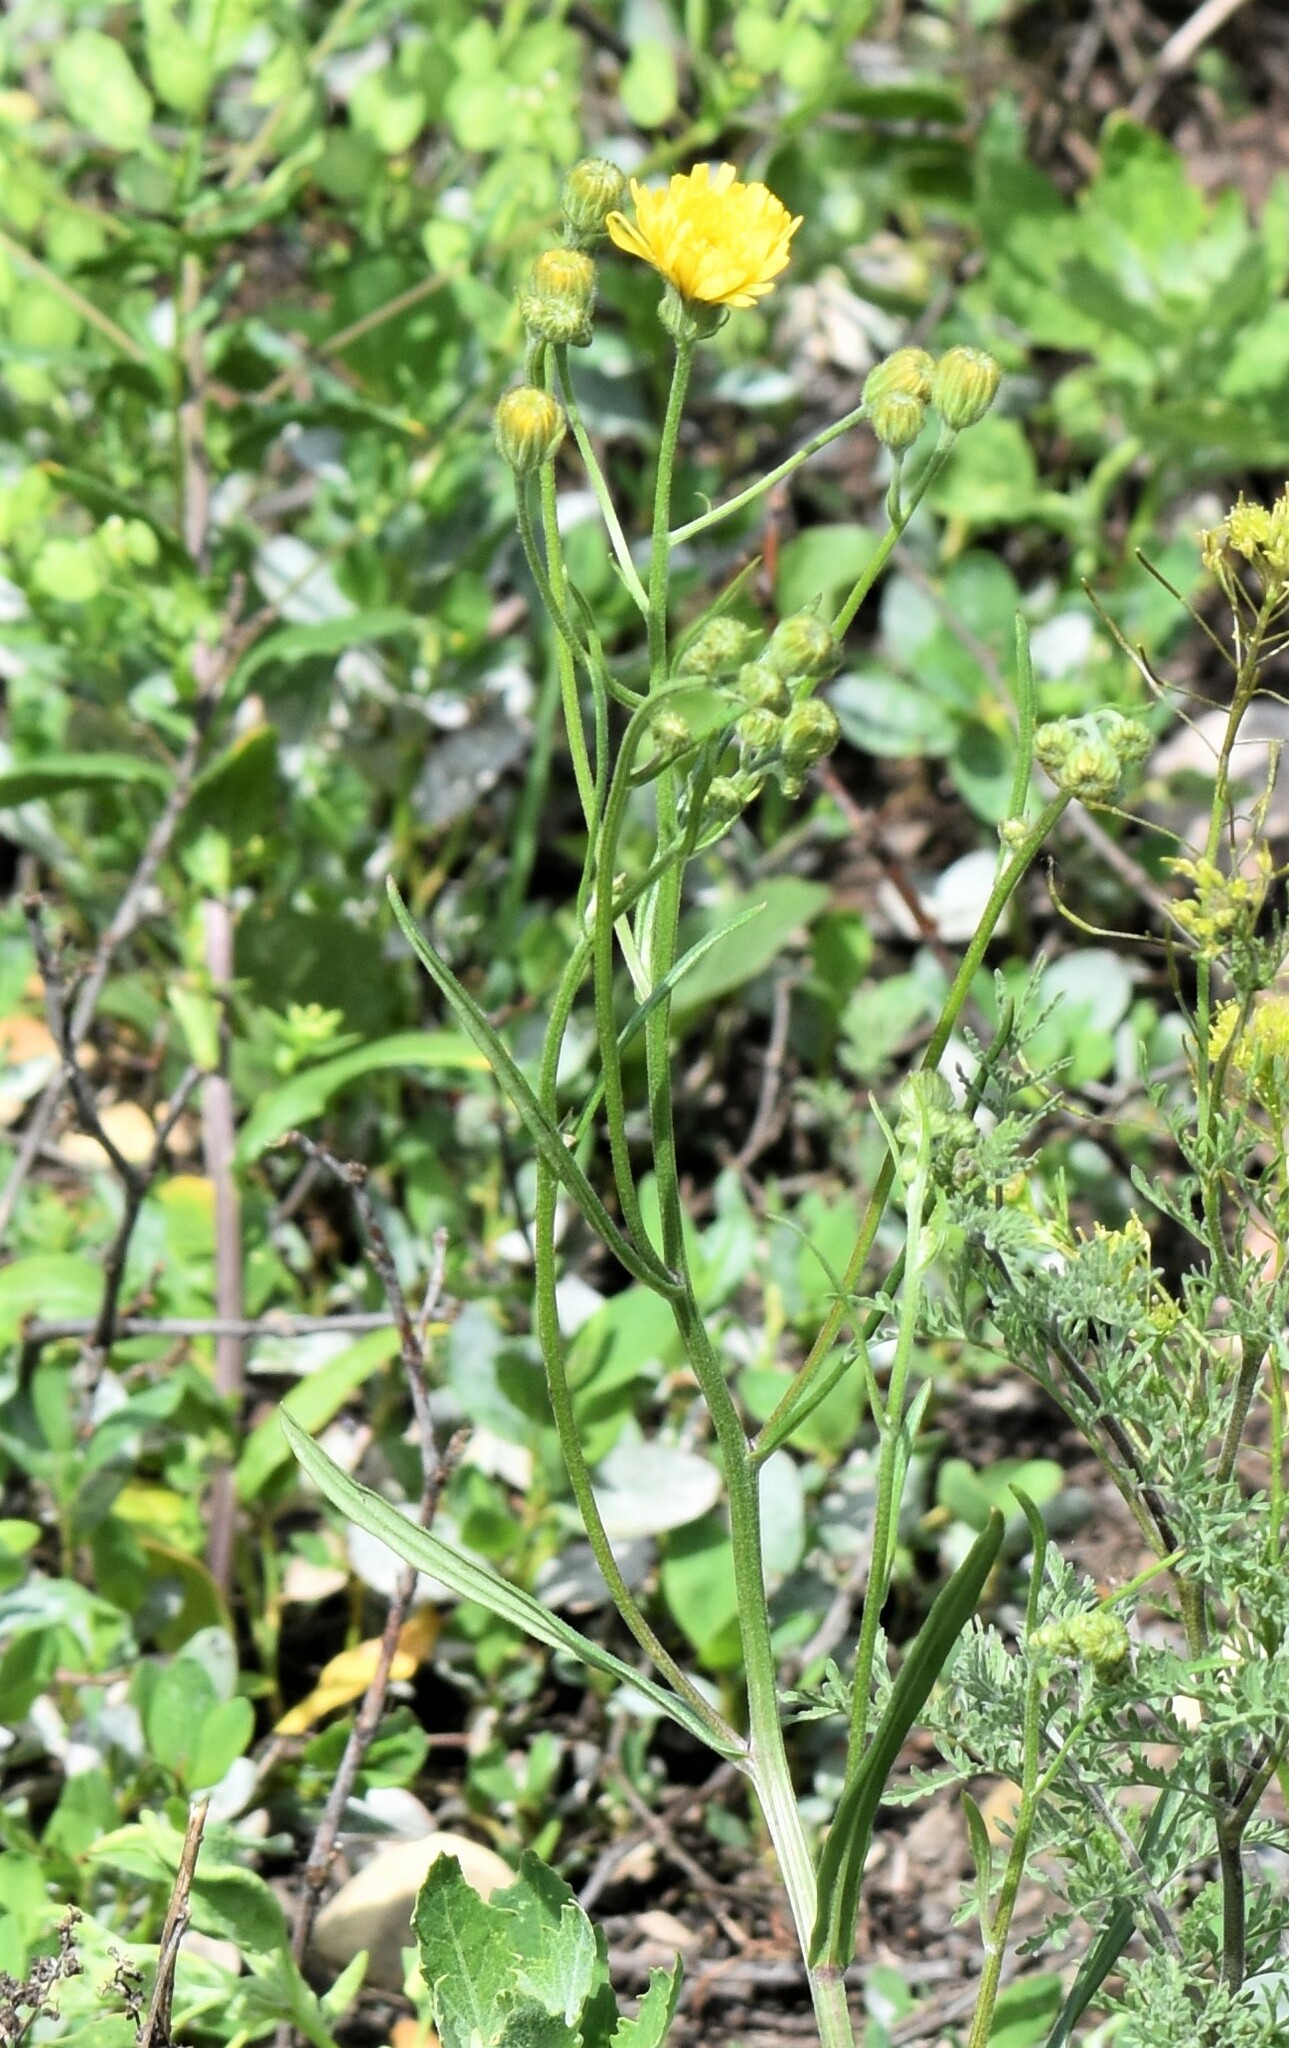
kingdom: Plantae
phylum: Tracheophyta
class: Magnoliopsida
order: Asterales
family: Asteraceae
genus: Crepis
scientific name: Crepis tectorum
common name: Narrow-leaved hawk's-beard
